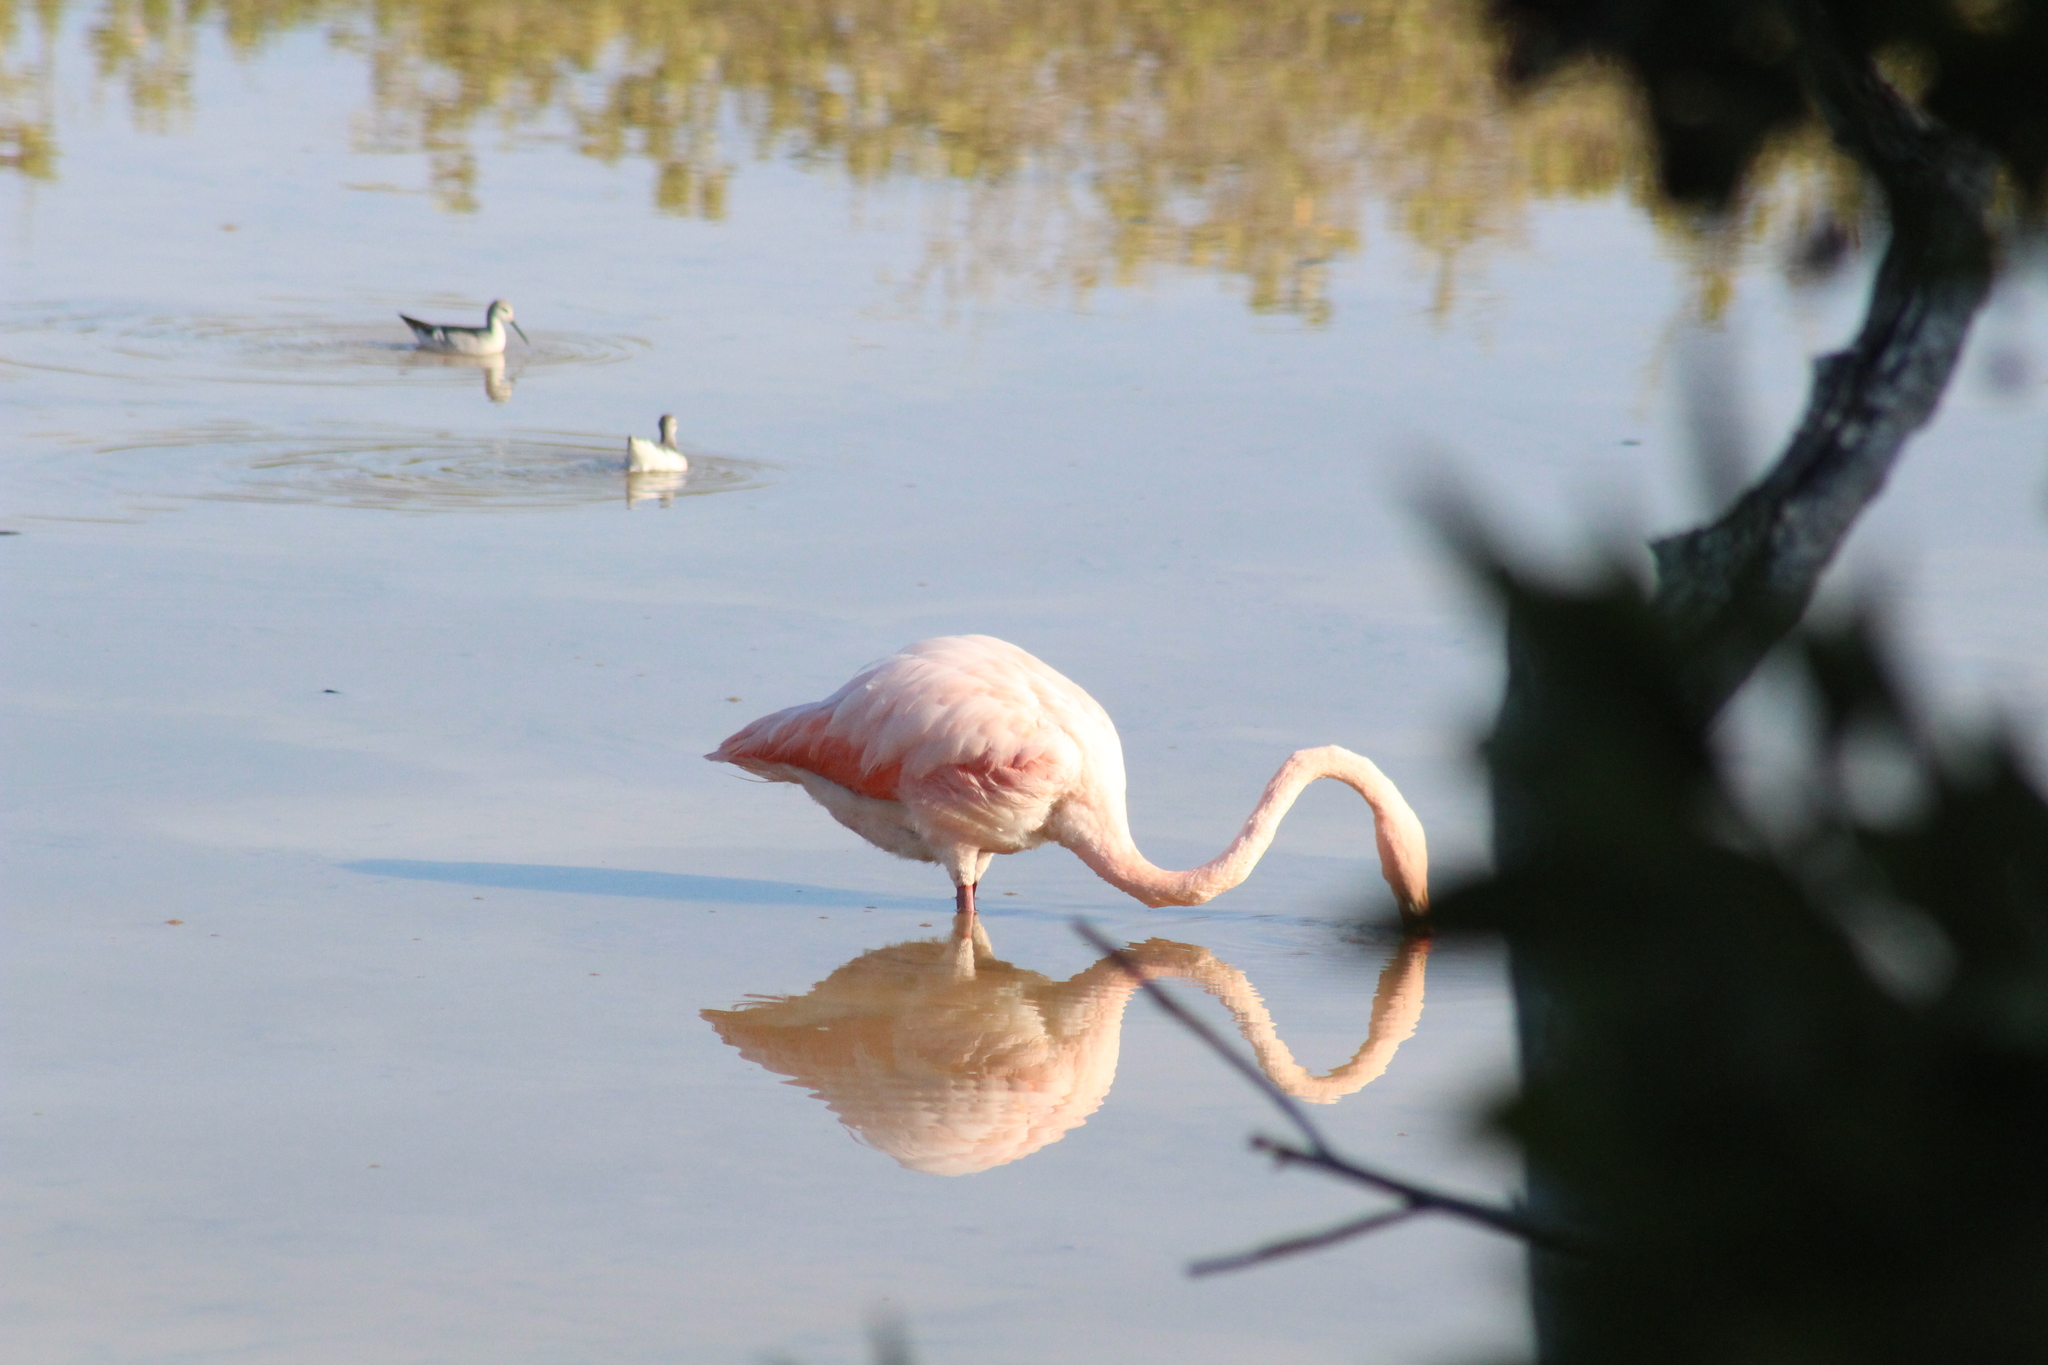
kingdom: Animalia
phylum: Chordata
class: Aves
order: Phoenicopteriformes
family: Phoenicopteridae
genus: Phoenicopterus
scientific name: Phoenicopterus ruber
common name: American flamingo
